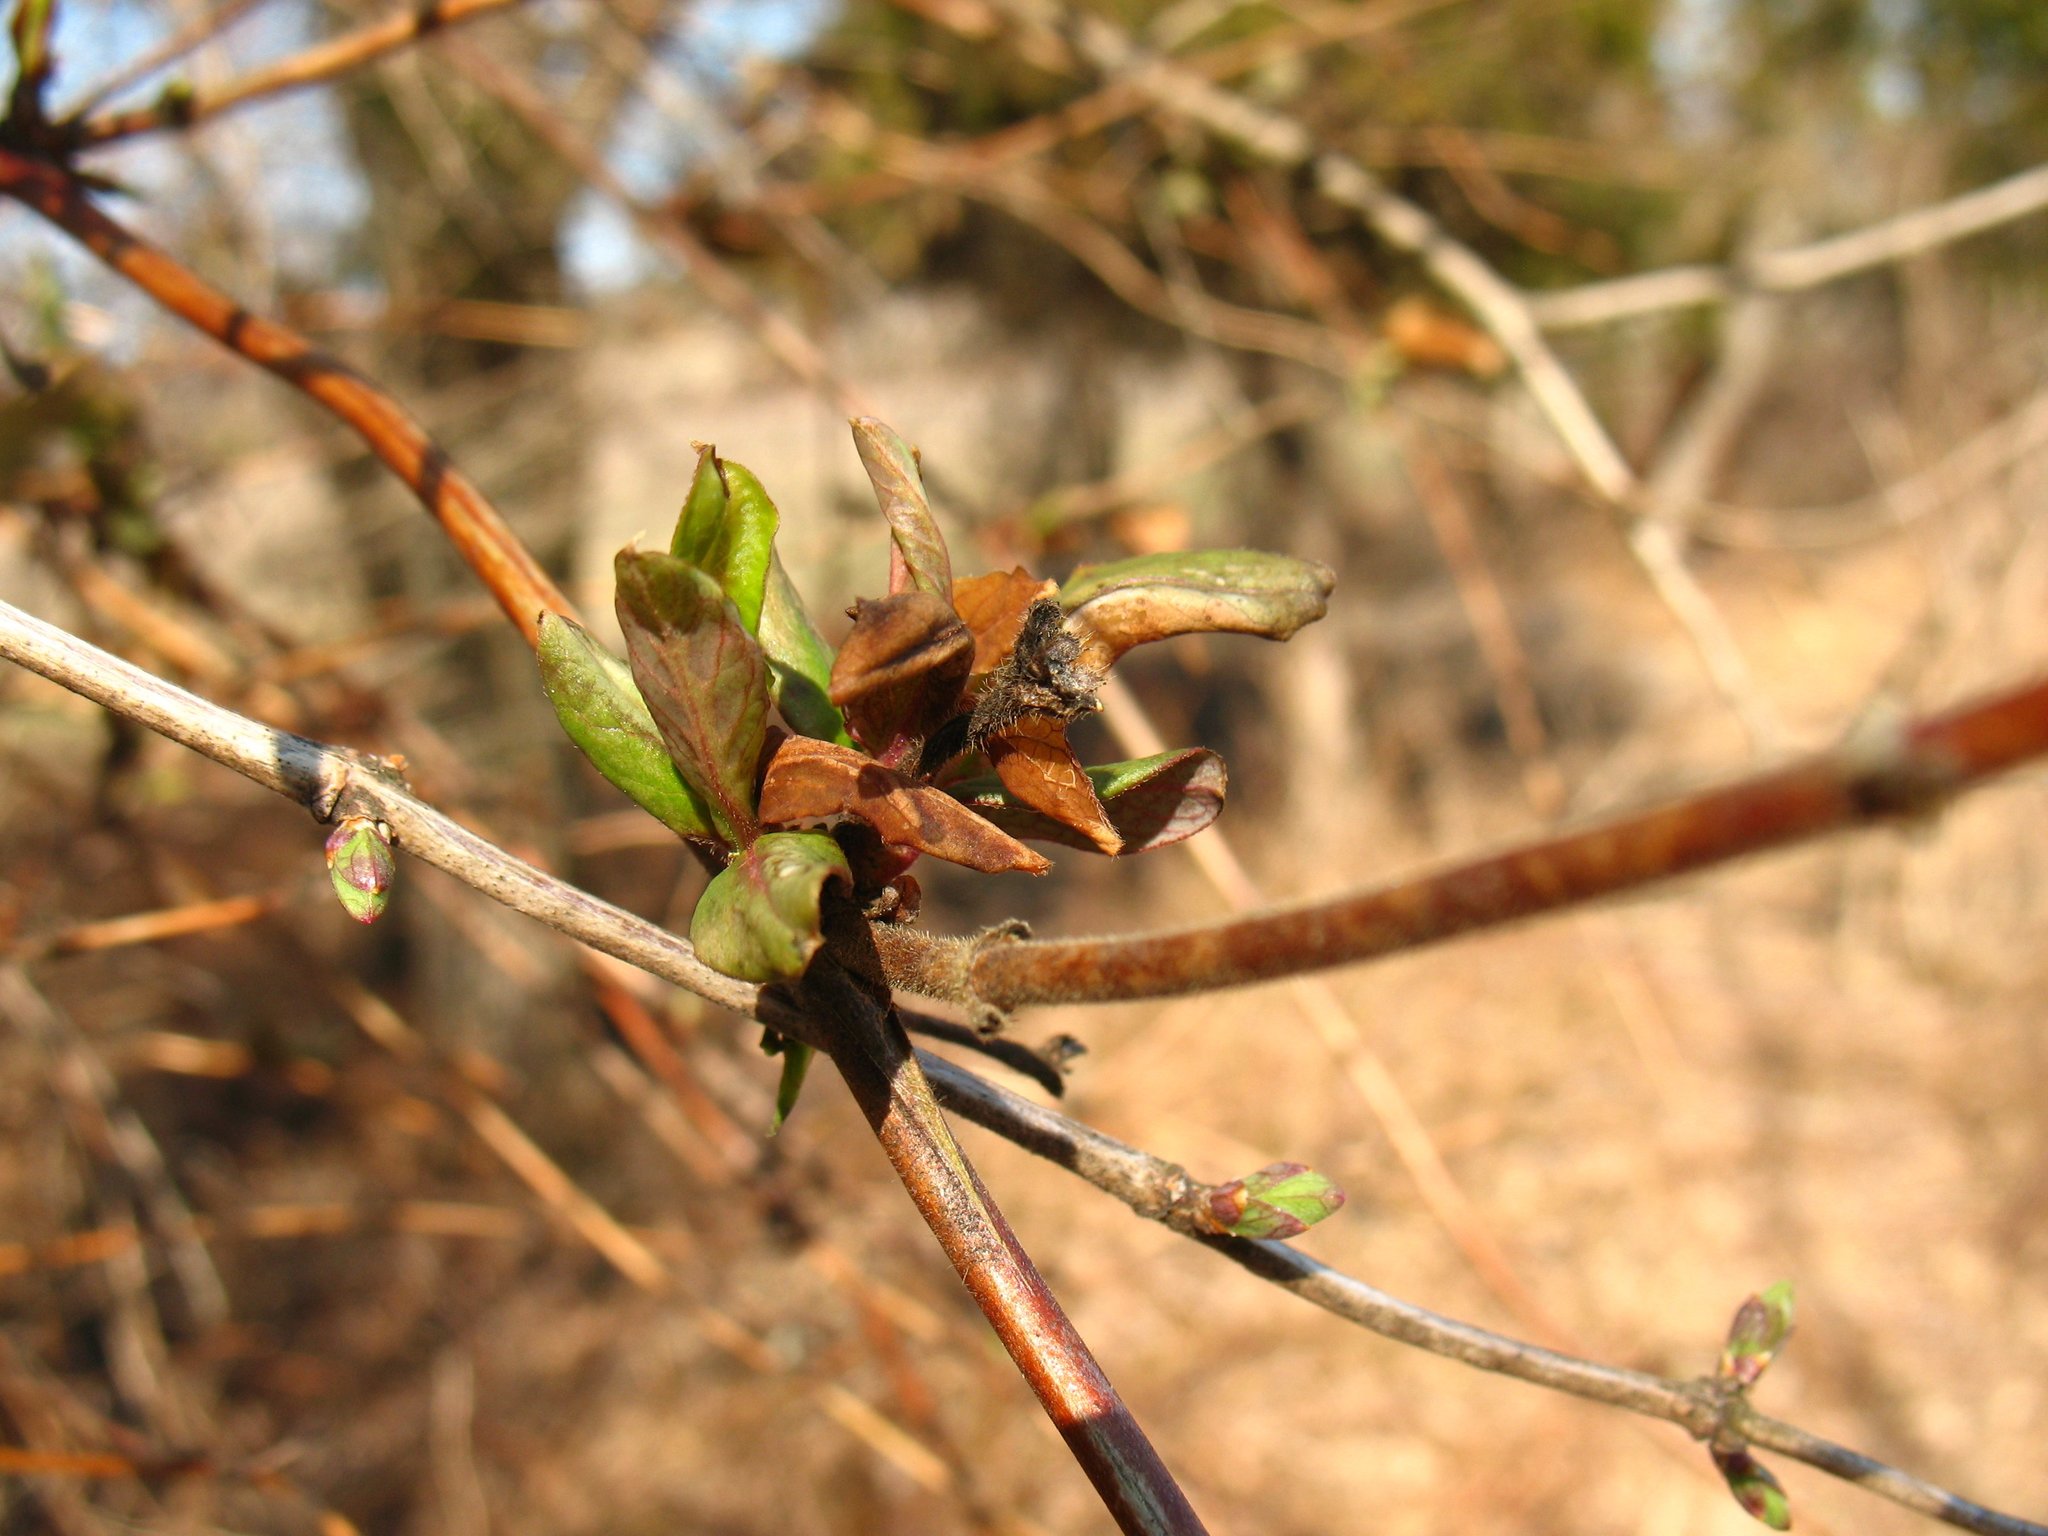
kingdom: Plantae
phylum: Tracheophyta
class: Magnoliopsida
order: Dipsacales
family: Caprifoliaceae
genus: Lonicera
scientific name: Lonicera japonica
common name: Japanese honeysuckle
